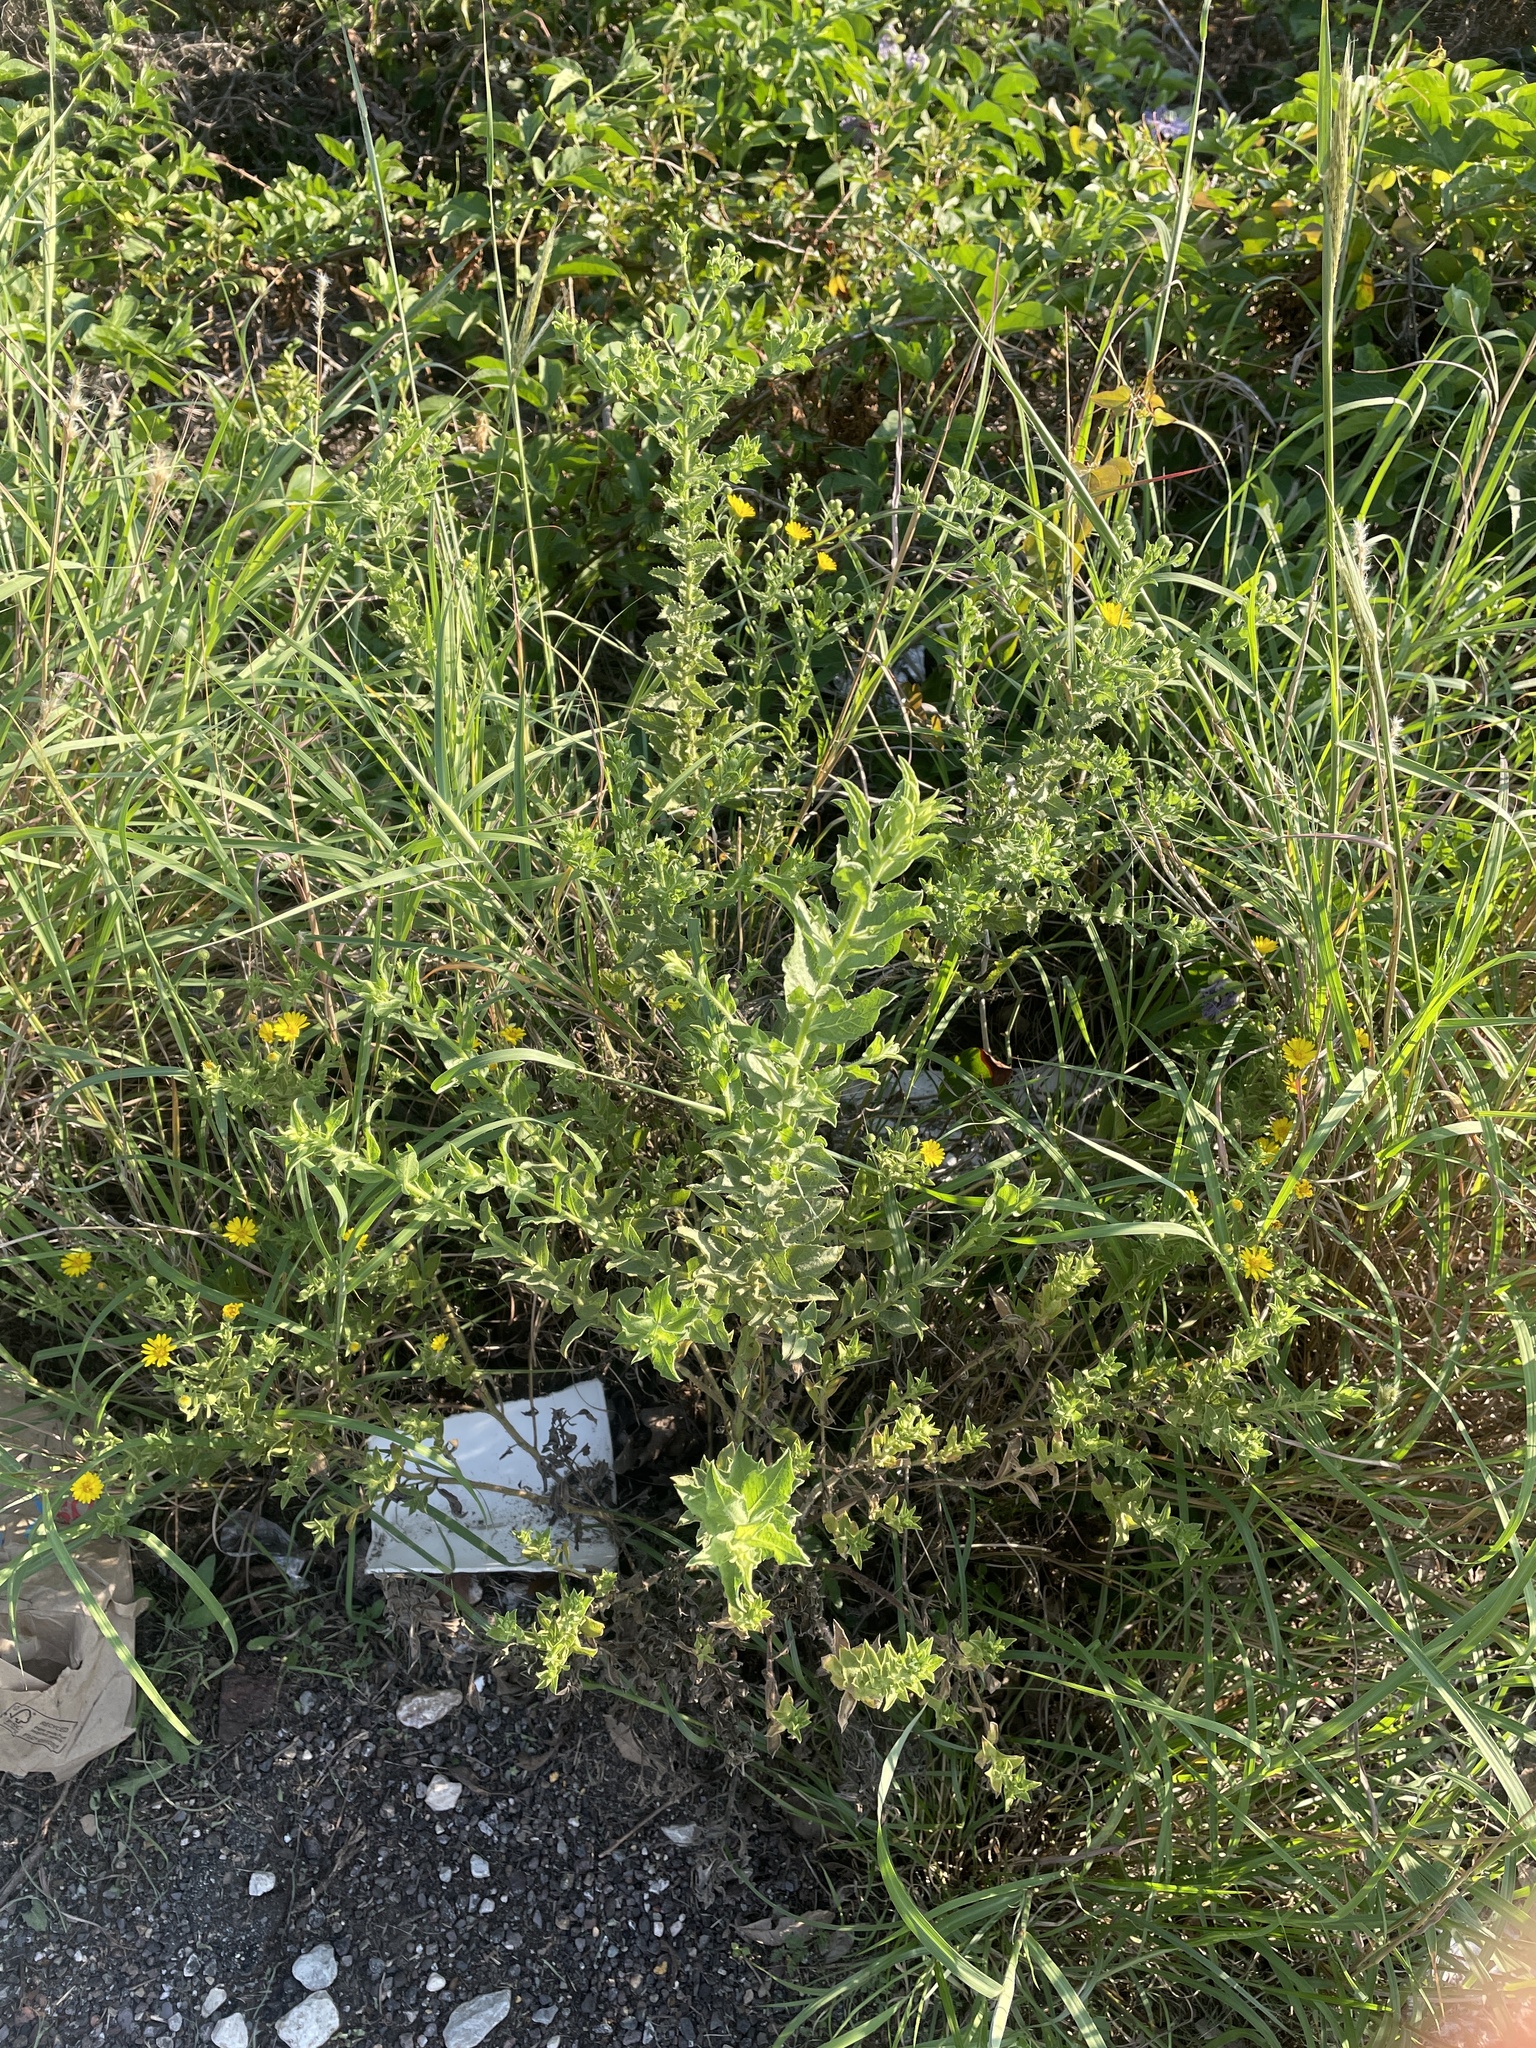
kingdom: Plantae
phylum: Tracheophyta
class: Magnoliopsida
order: Asterales
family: Asteraceae
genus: Heterotheca
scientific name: Heterotheca subaxillaris
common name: Camphorweed
